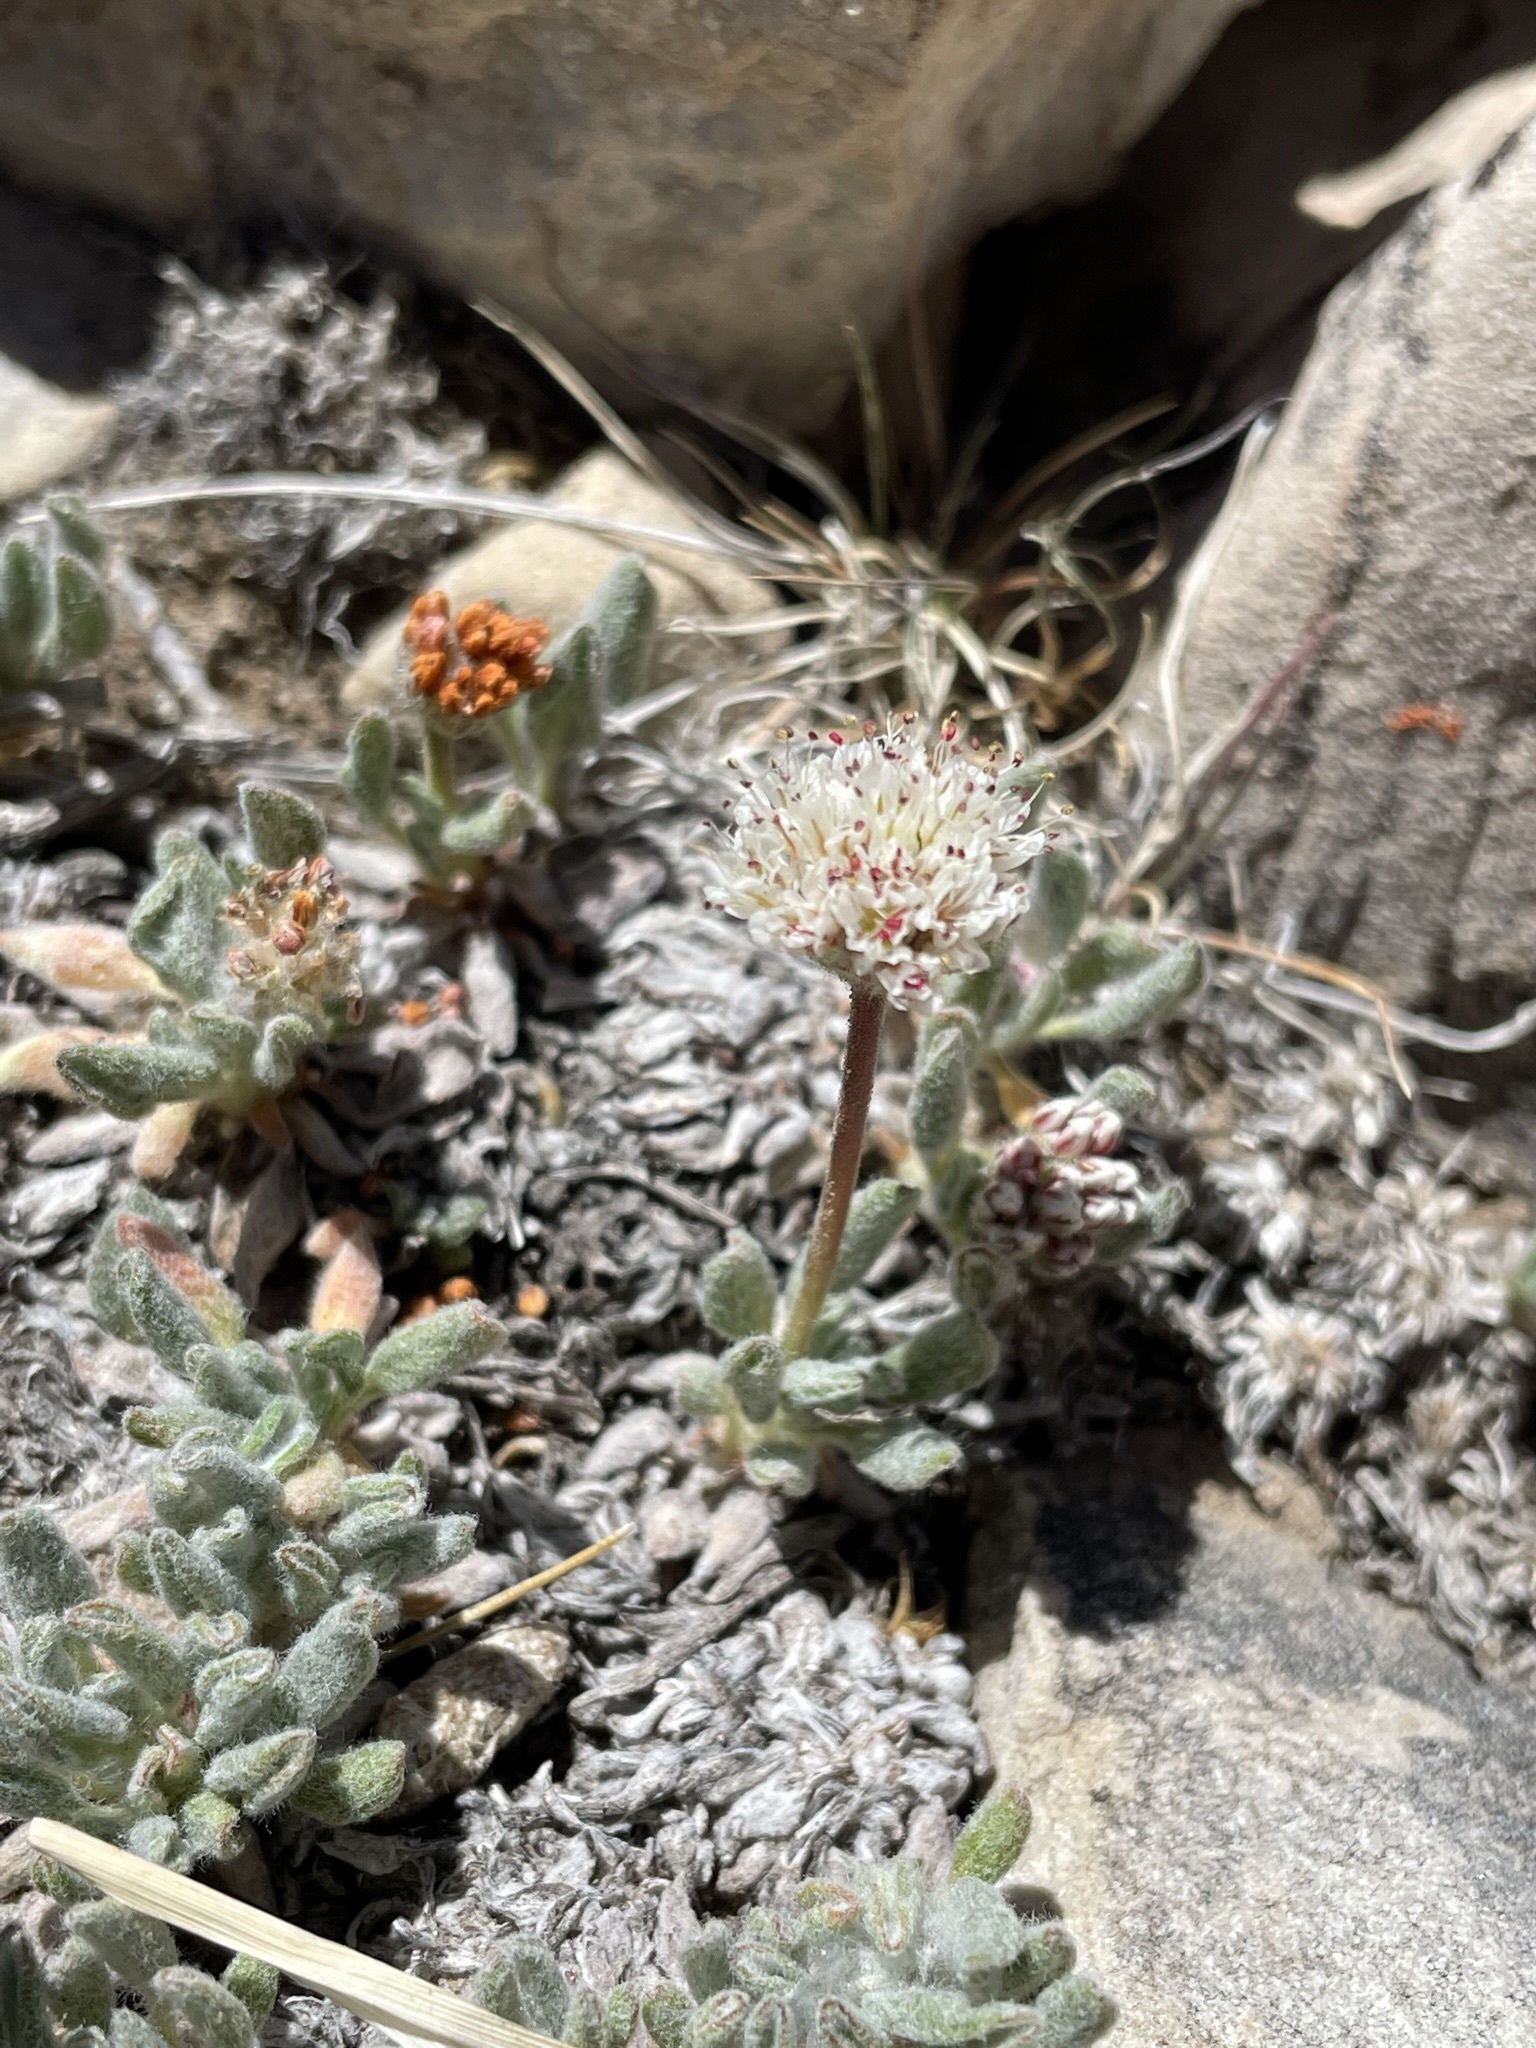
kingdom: Plantae
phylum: Tracheophyta
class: Magnoliopsida
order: Caryophyllales
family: Polygonaceae
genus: Eriogonum
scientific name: Eriogonum gracilipes
